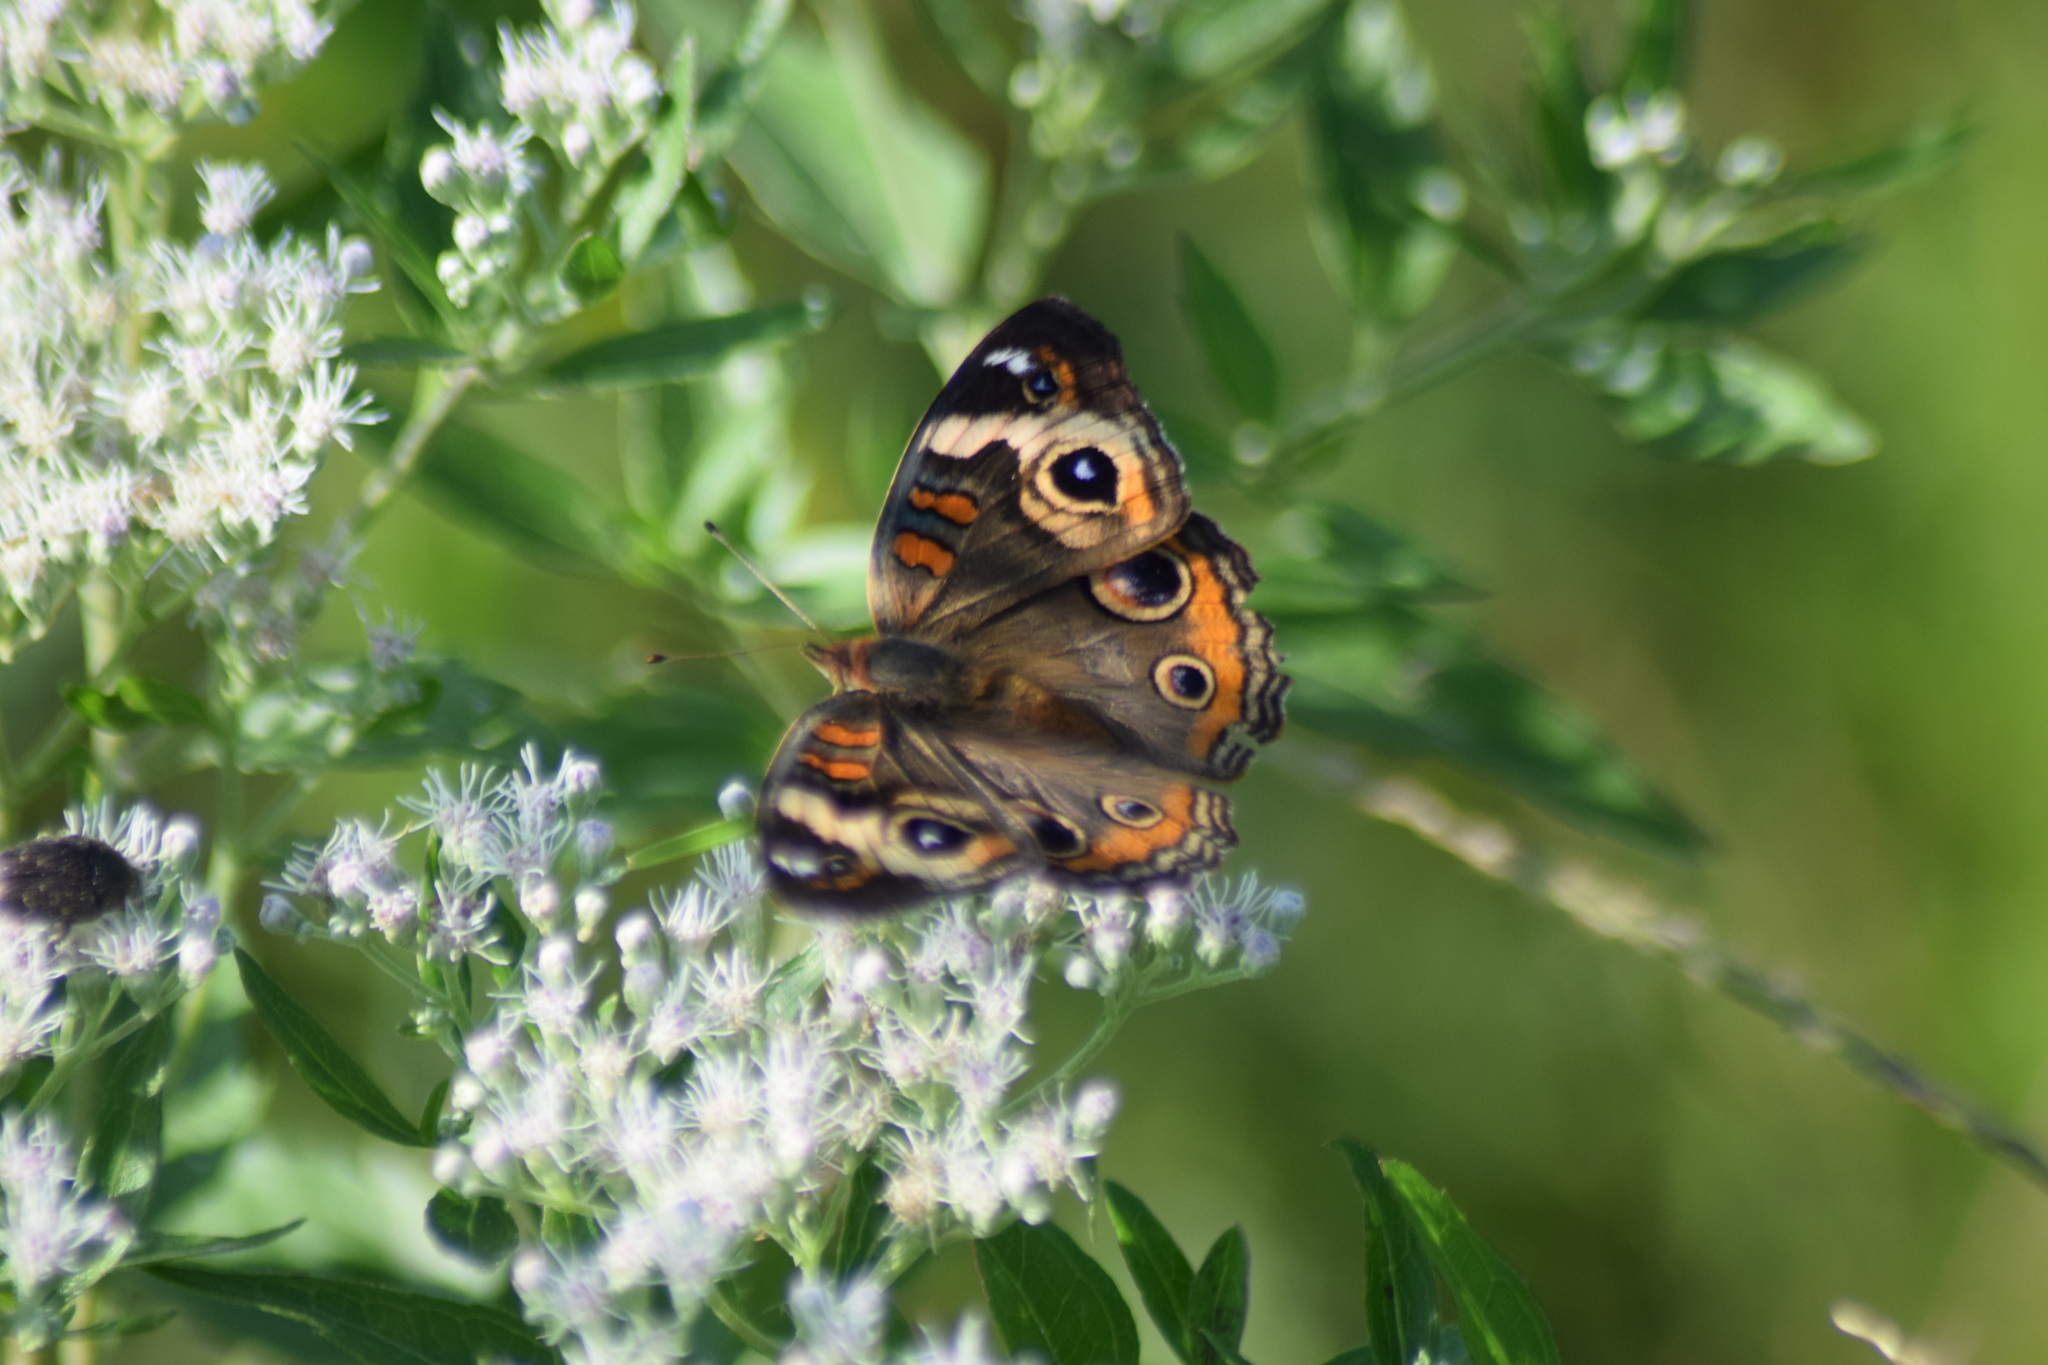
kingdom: Animalia
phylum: Arthropoda
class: Insecta
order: Lepidoptera
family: Nymphalidae
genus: Junonia
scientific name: Junonia coenia
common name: Common buckeye
